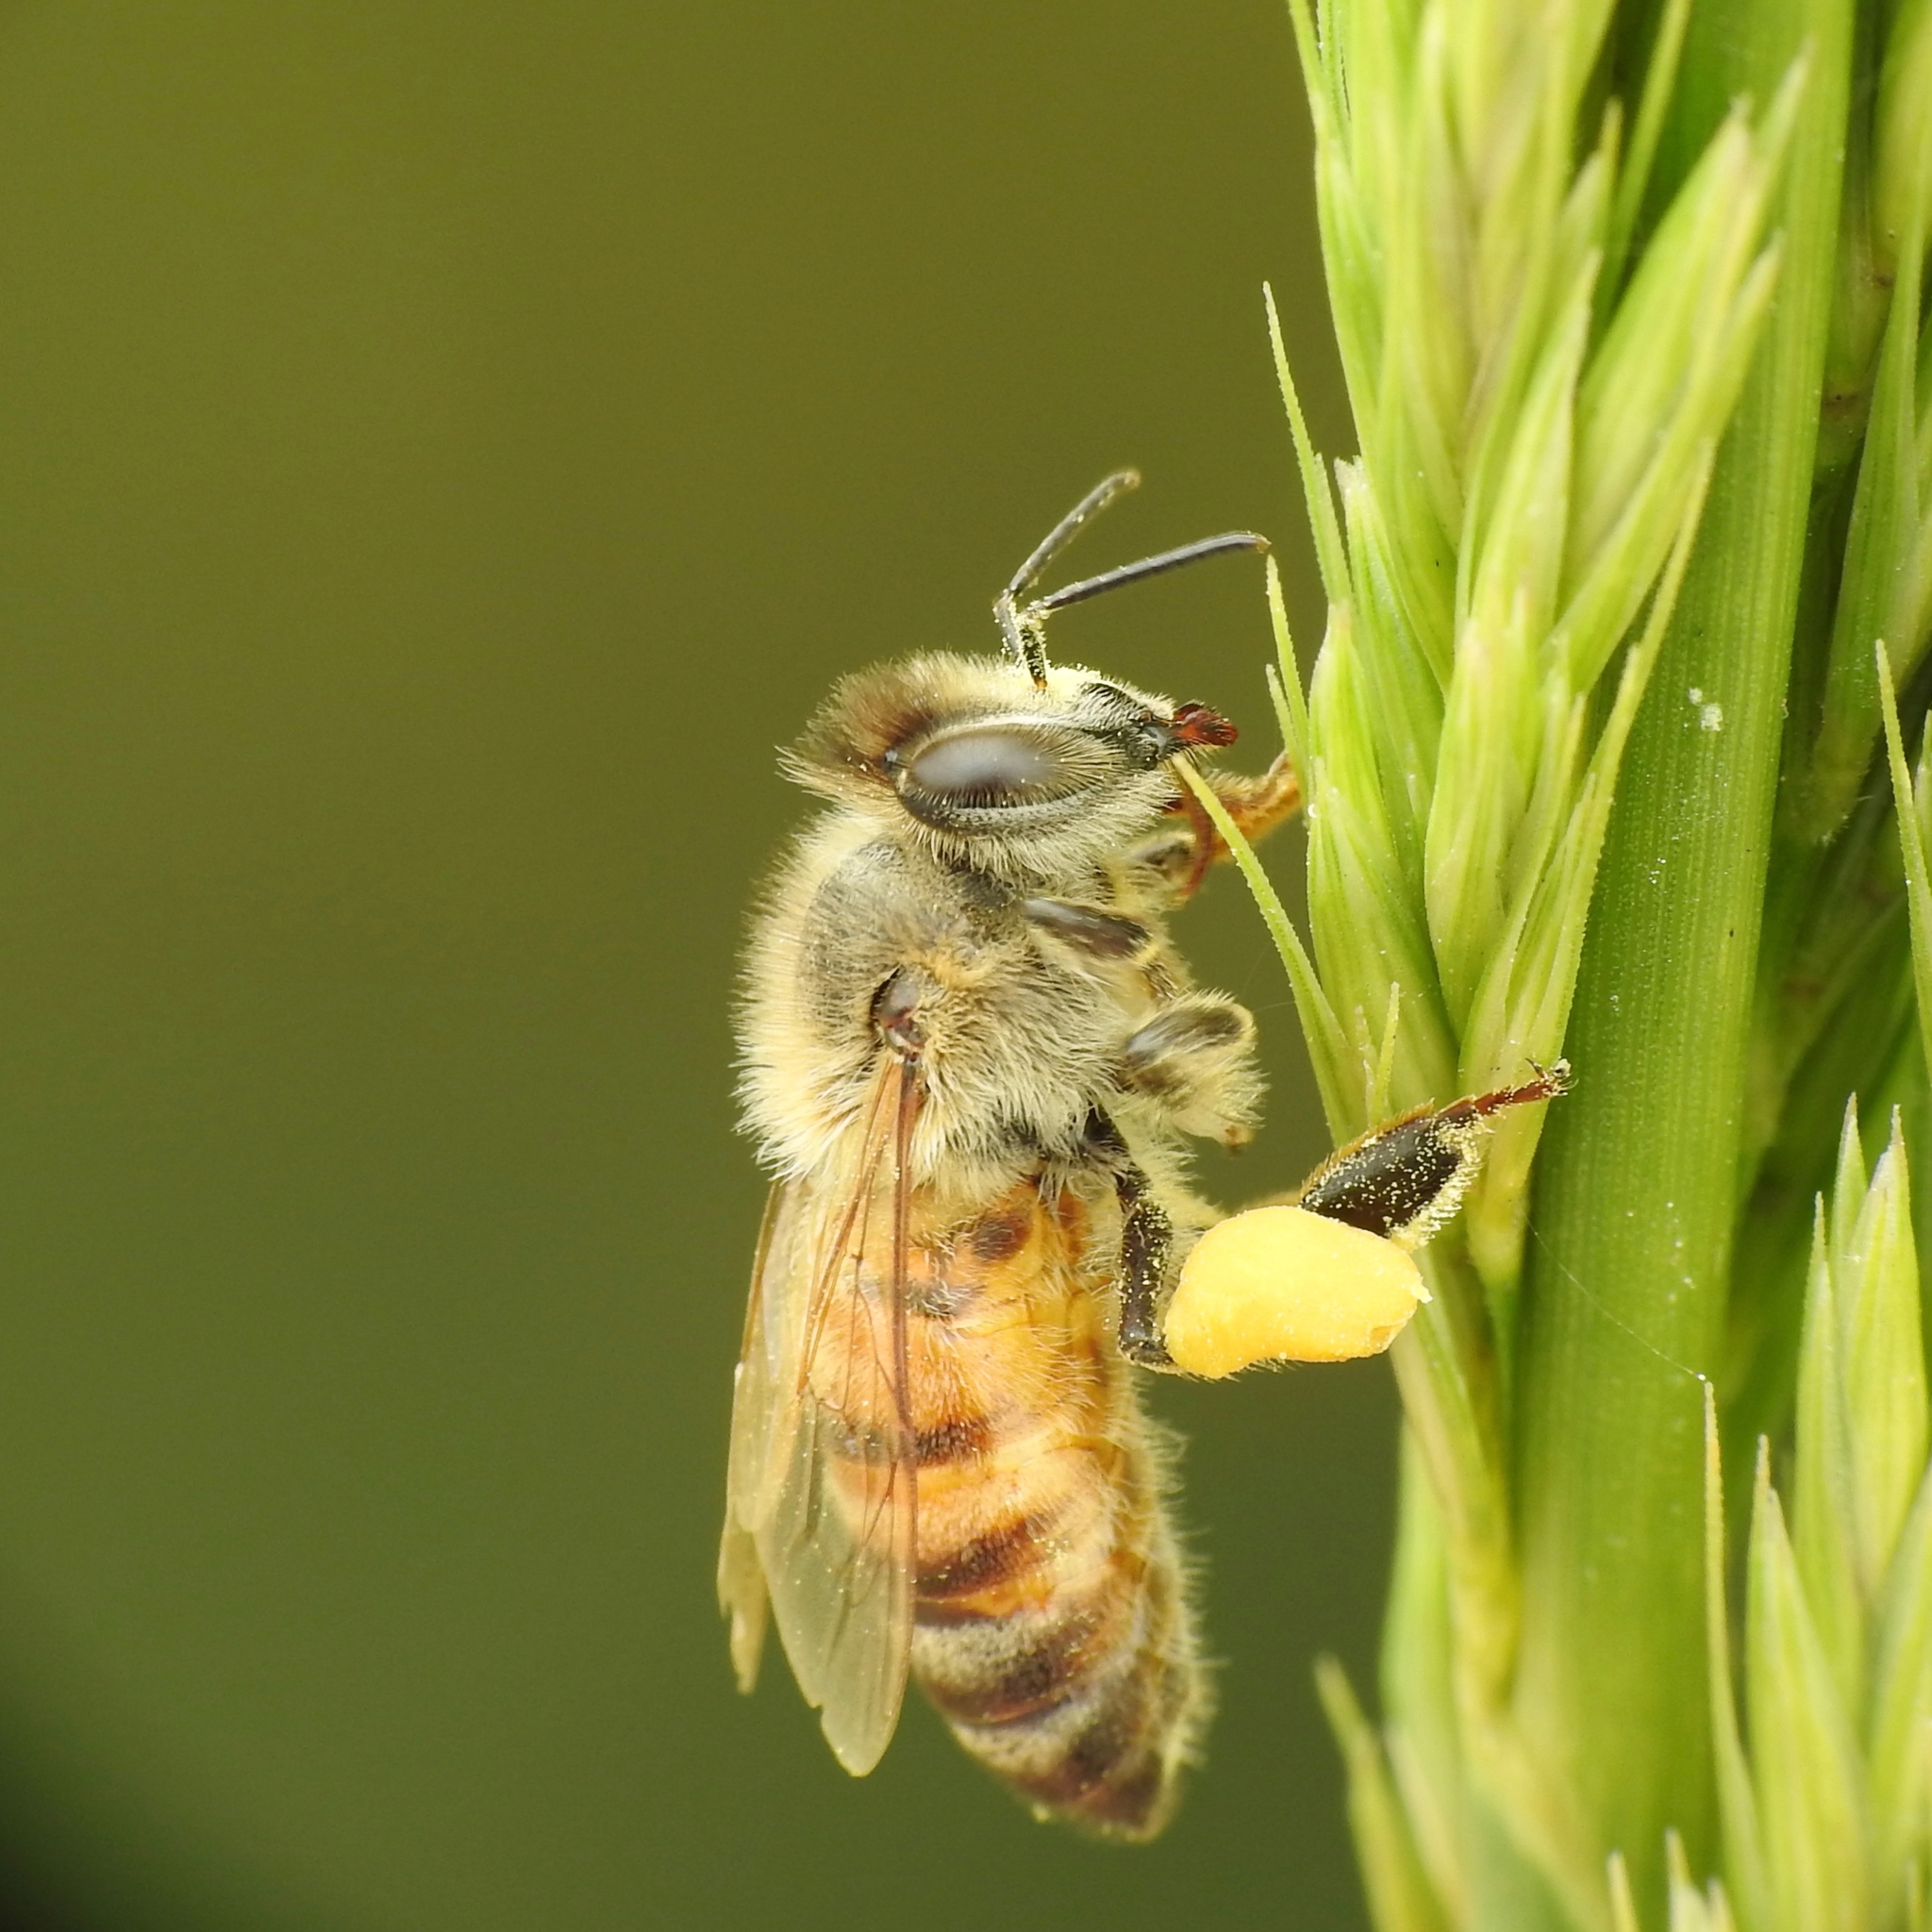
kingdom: Animalia
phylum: Arthropoda
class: Insecta
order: Hymenoptera
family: Apidae
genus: Apis
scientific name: Apis mellifera
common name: Honey bee
